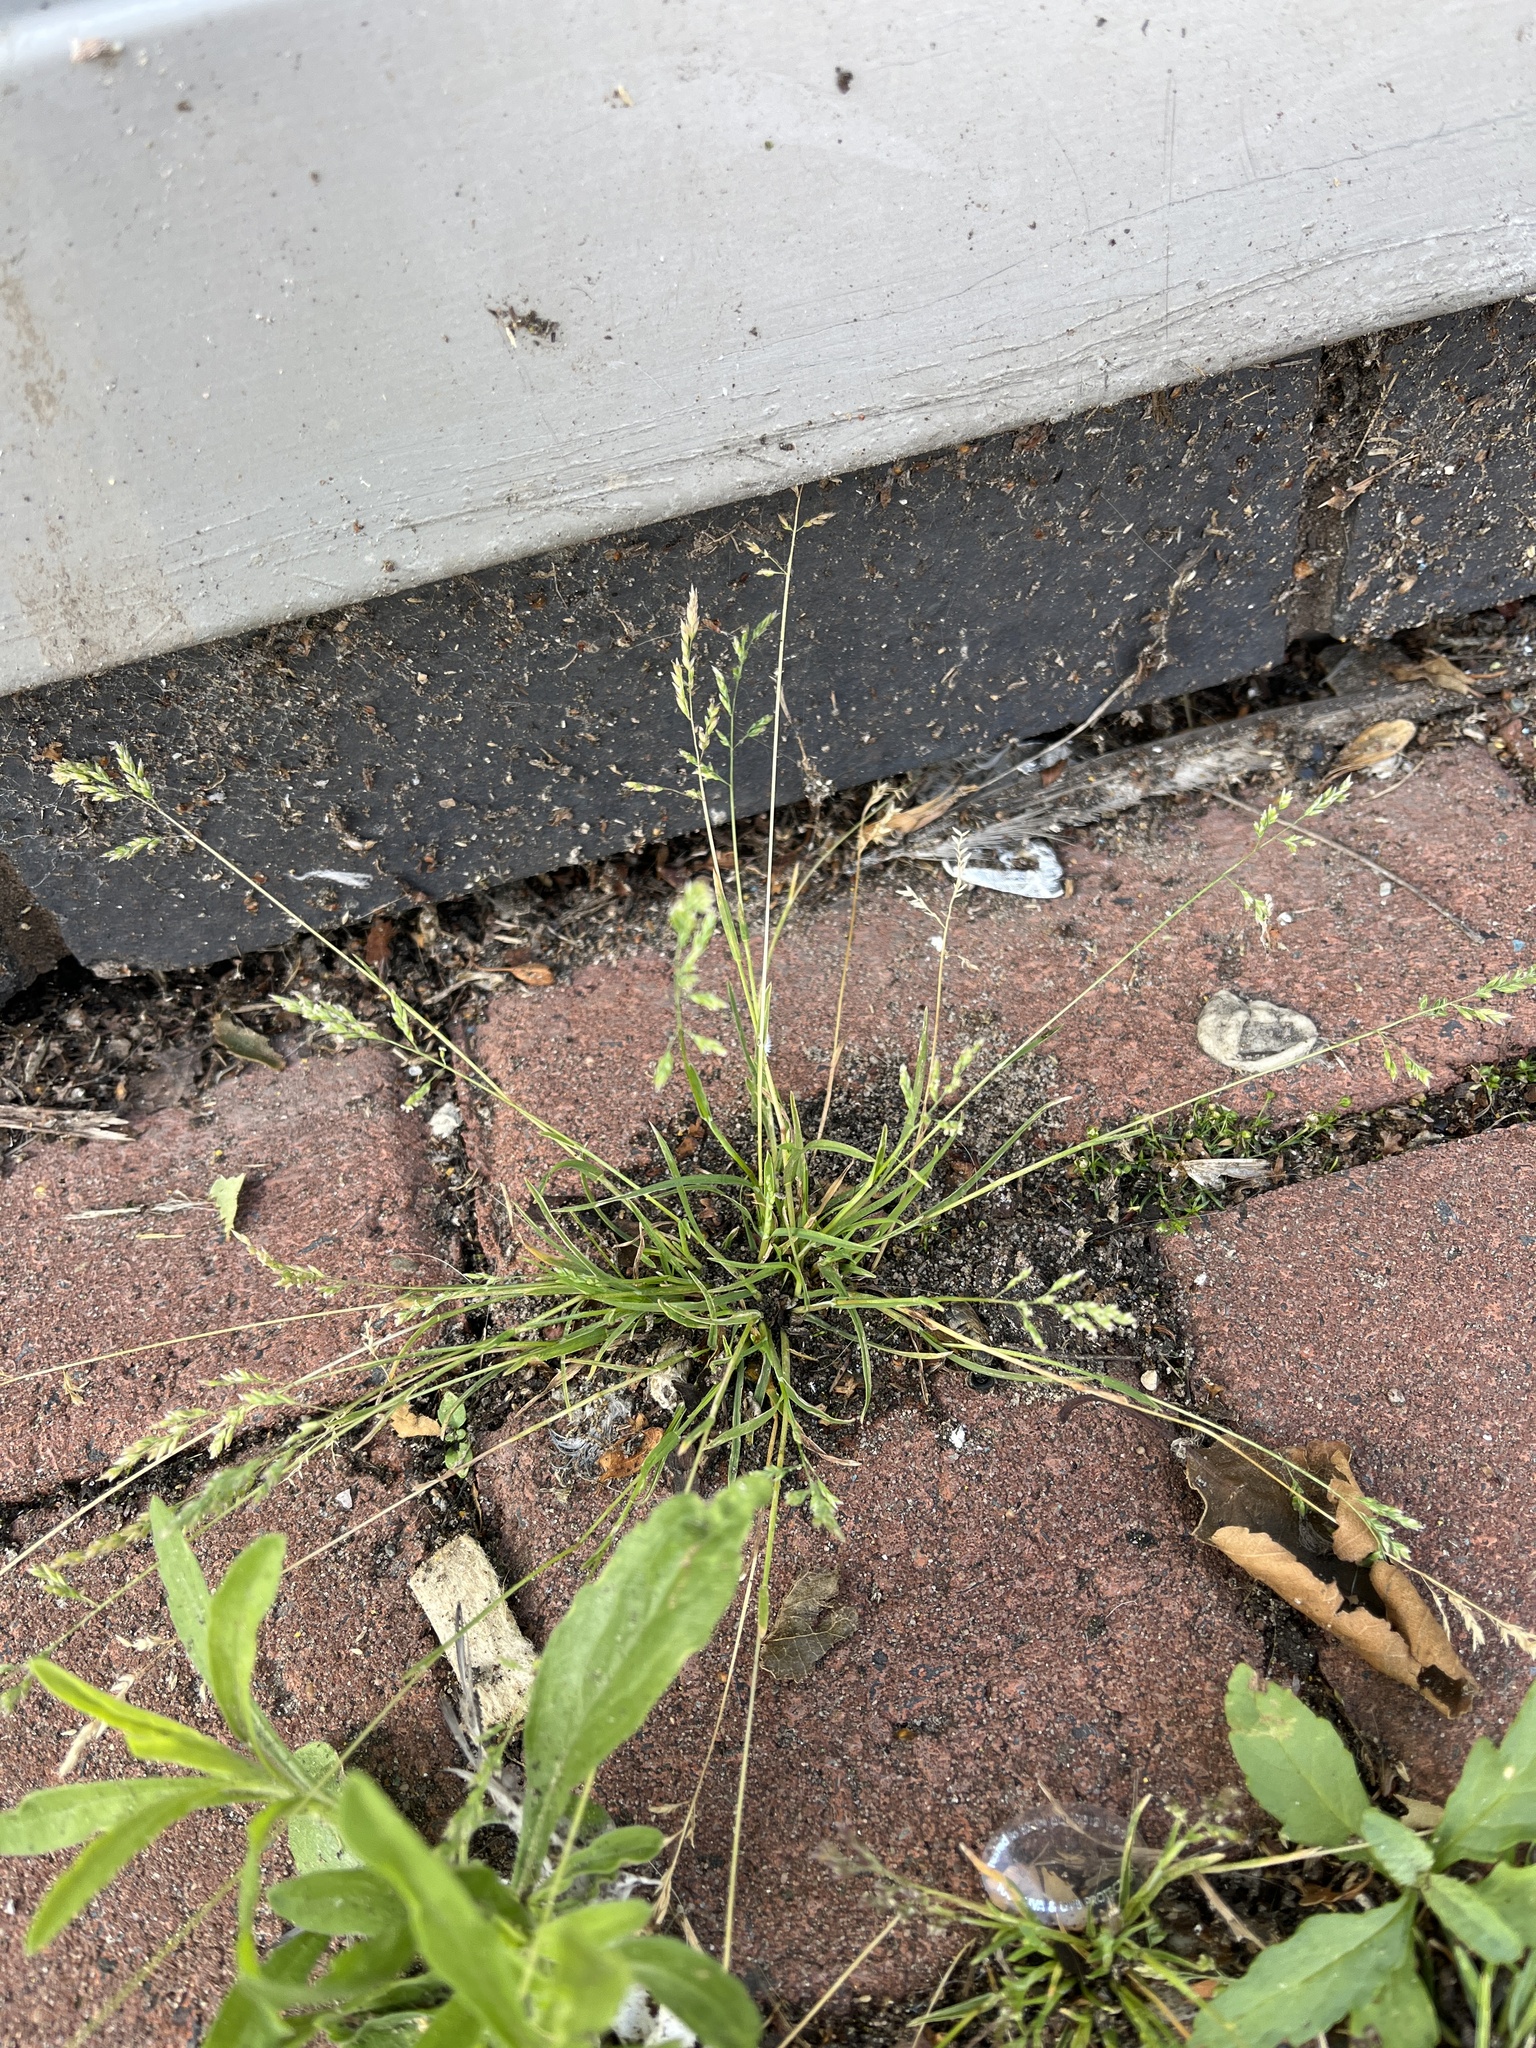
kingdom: Plantae
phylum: Tracheophyta
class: Liliopsida
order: Poales
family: Poaceae
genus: Poa
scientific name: Poa annua
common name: Annual bluegrass
